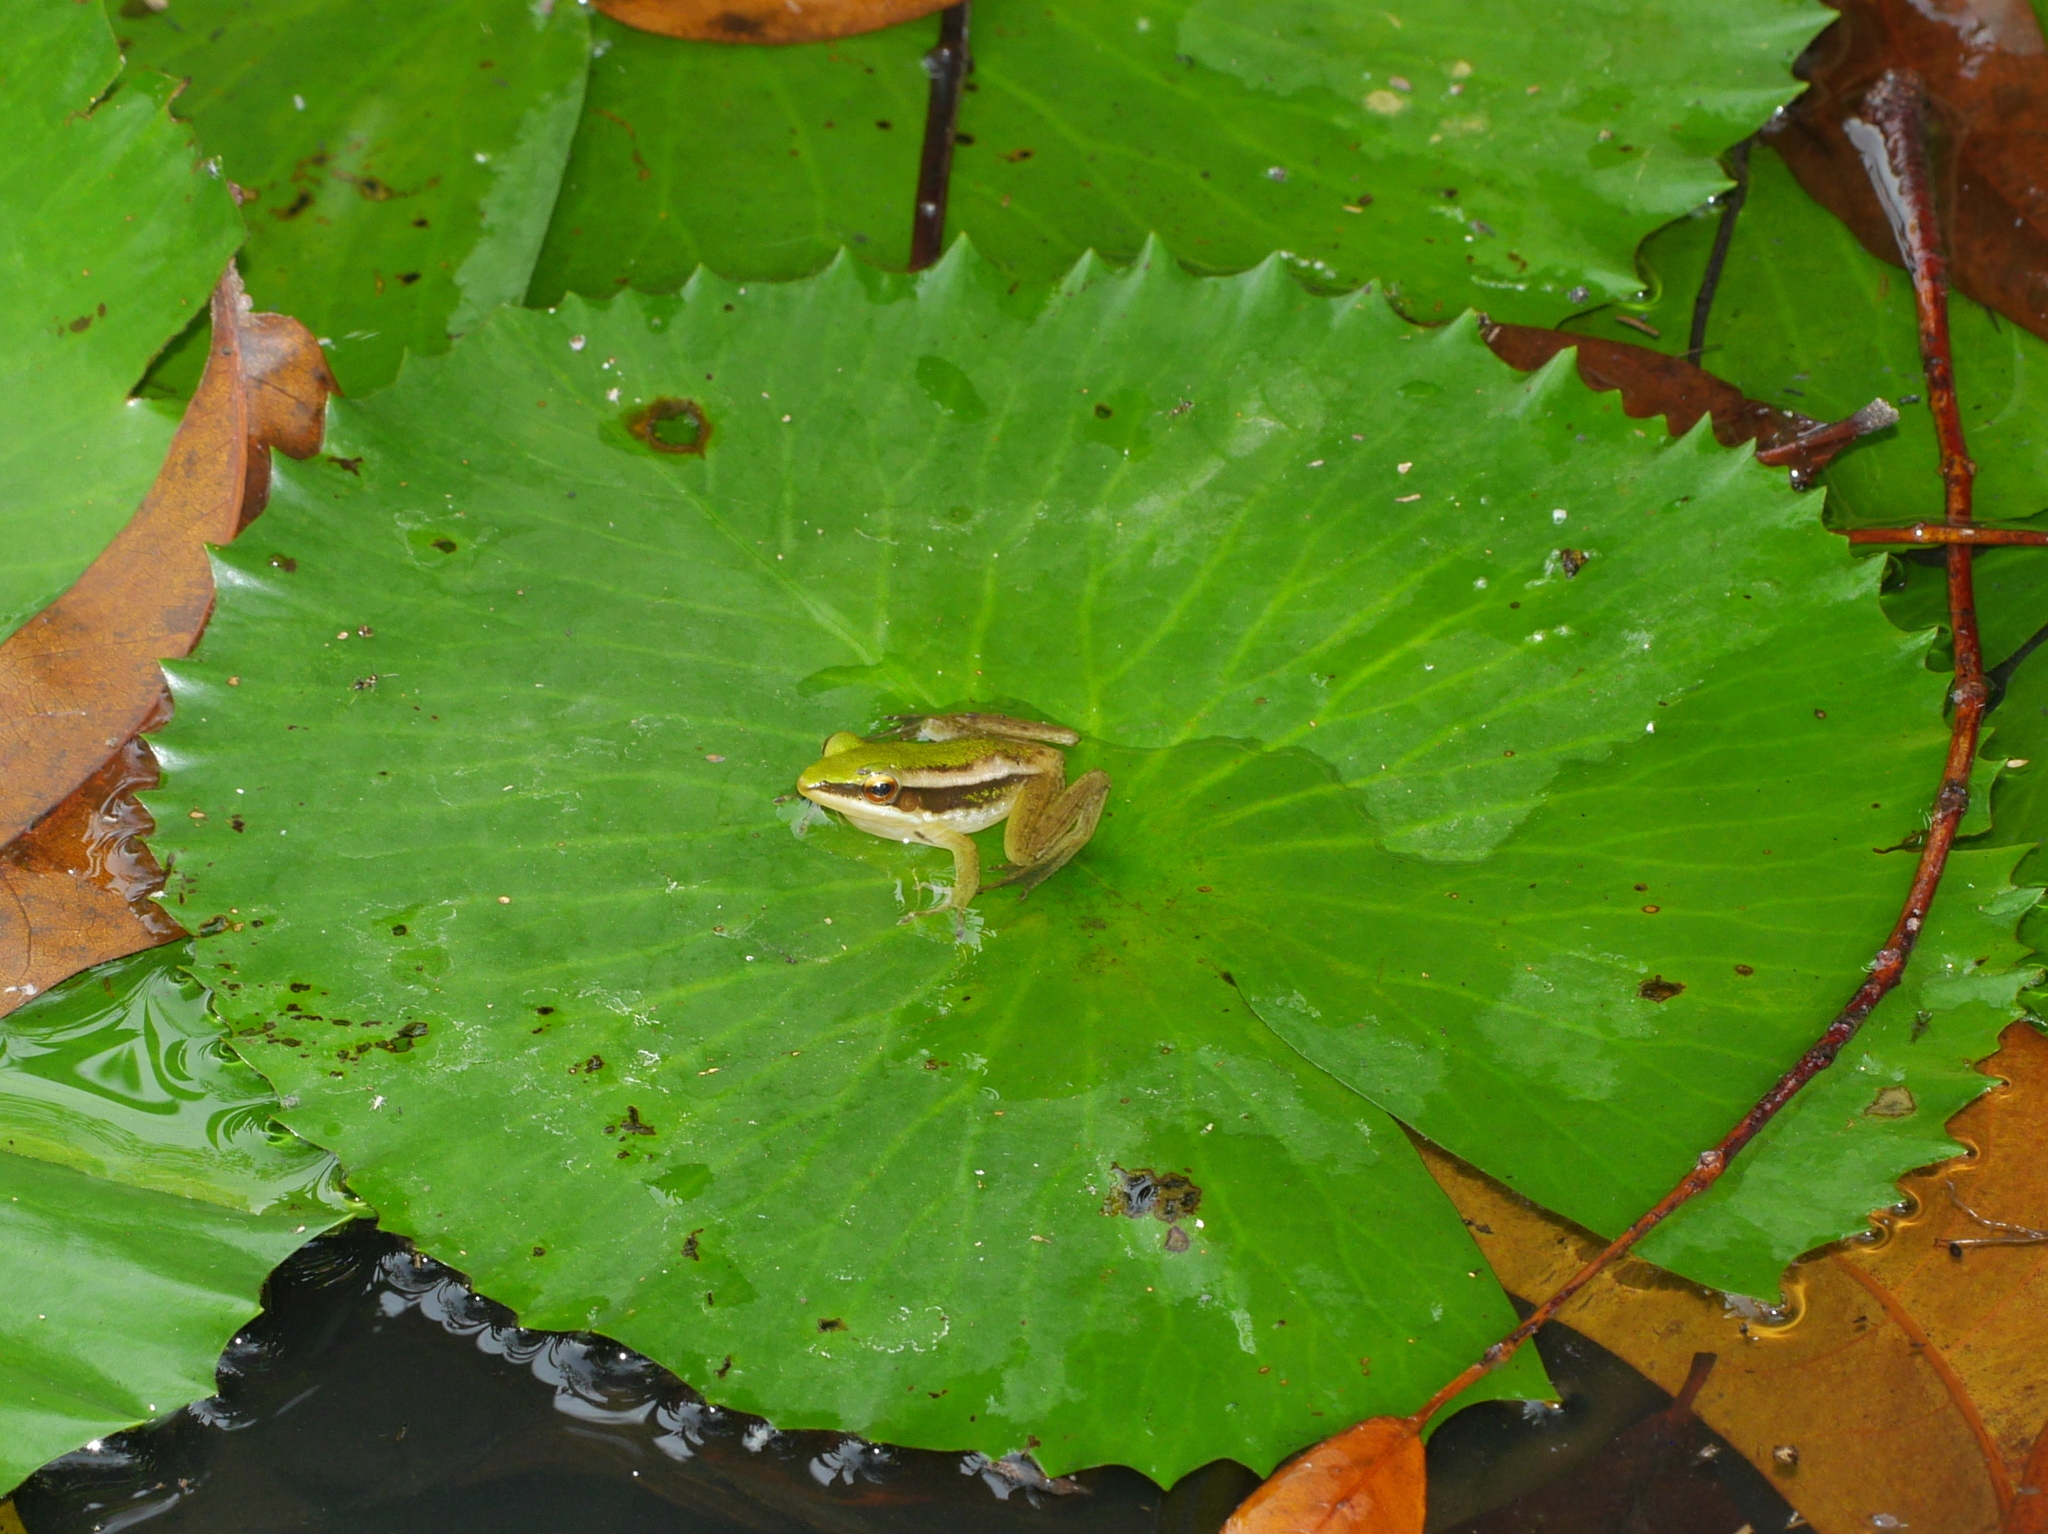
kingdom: Animalia
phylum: Chordata
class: Amphibia
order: Anura
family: Ranidae
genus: Hylarana
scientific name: Hylarana erythraea
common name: Common green frog/green paddy frog/leaf frog
